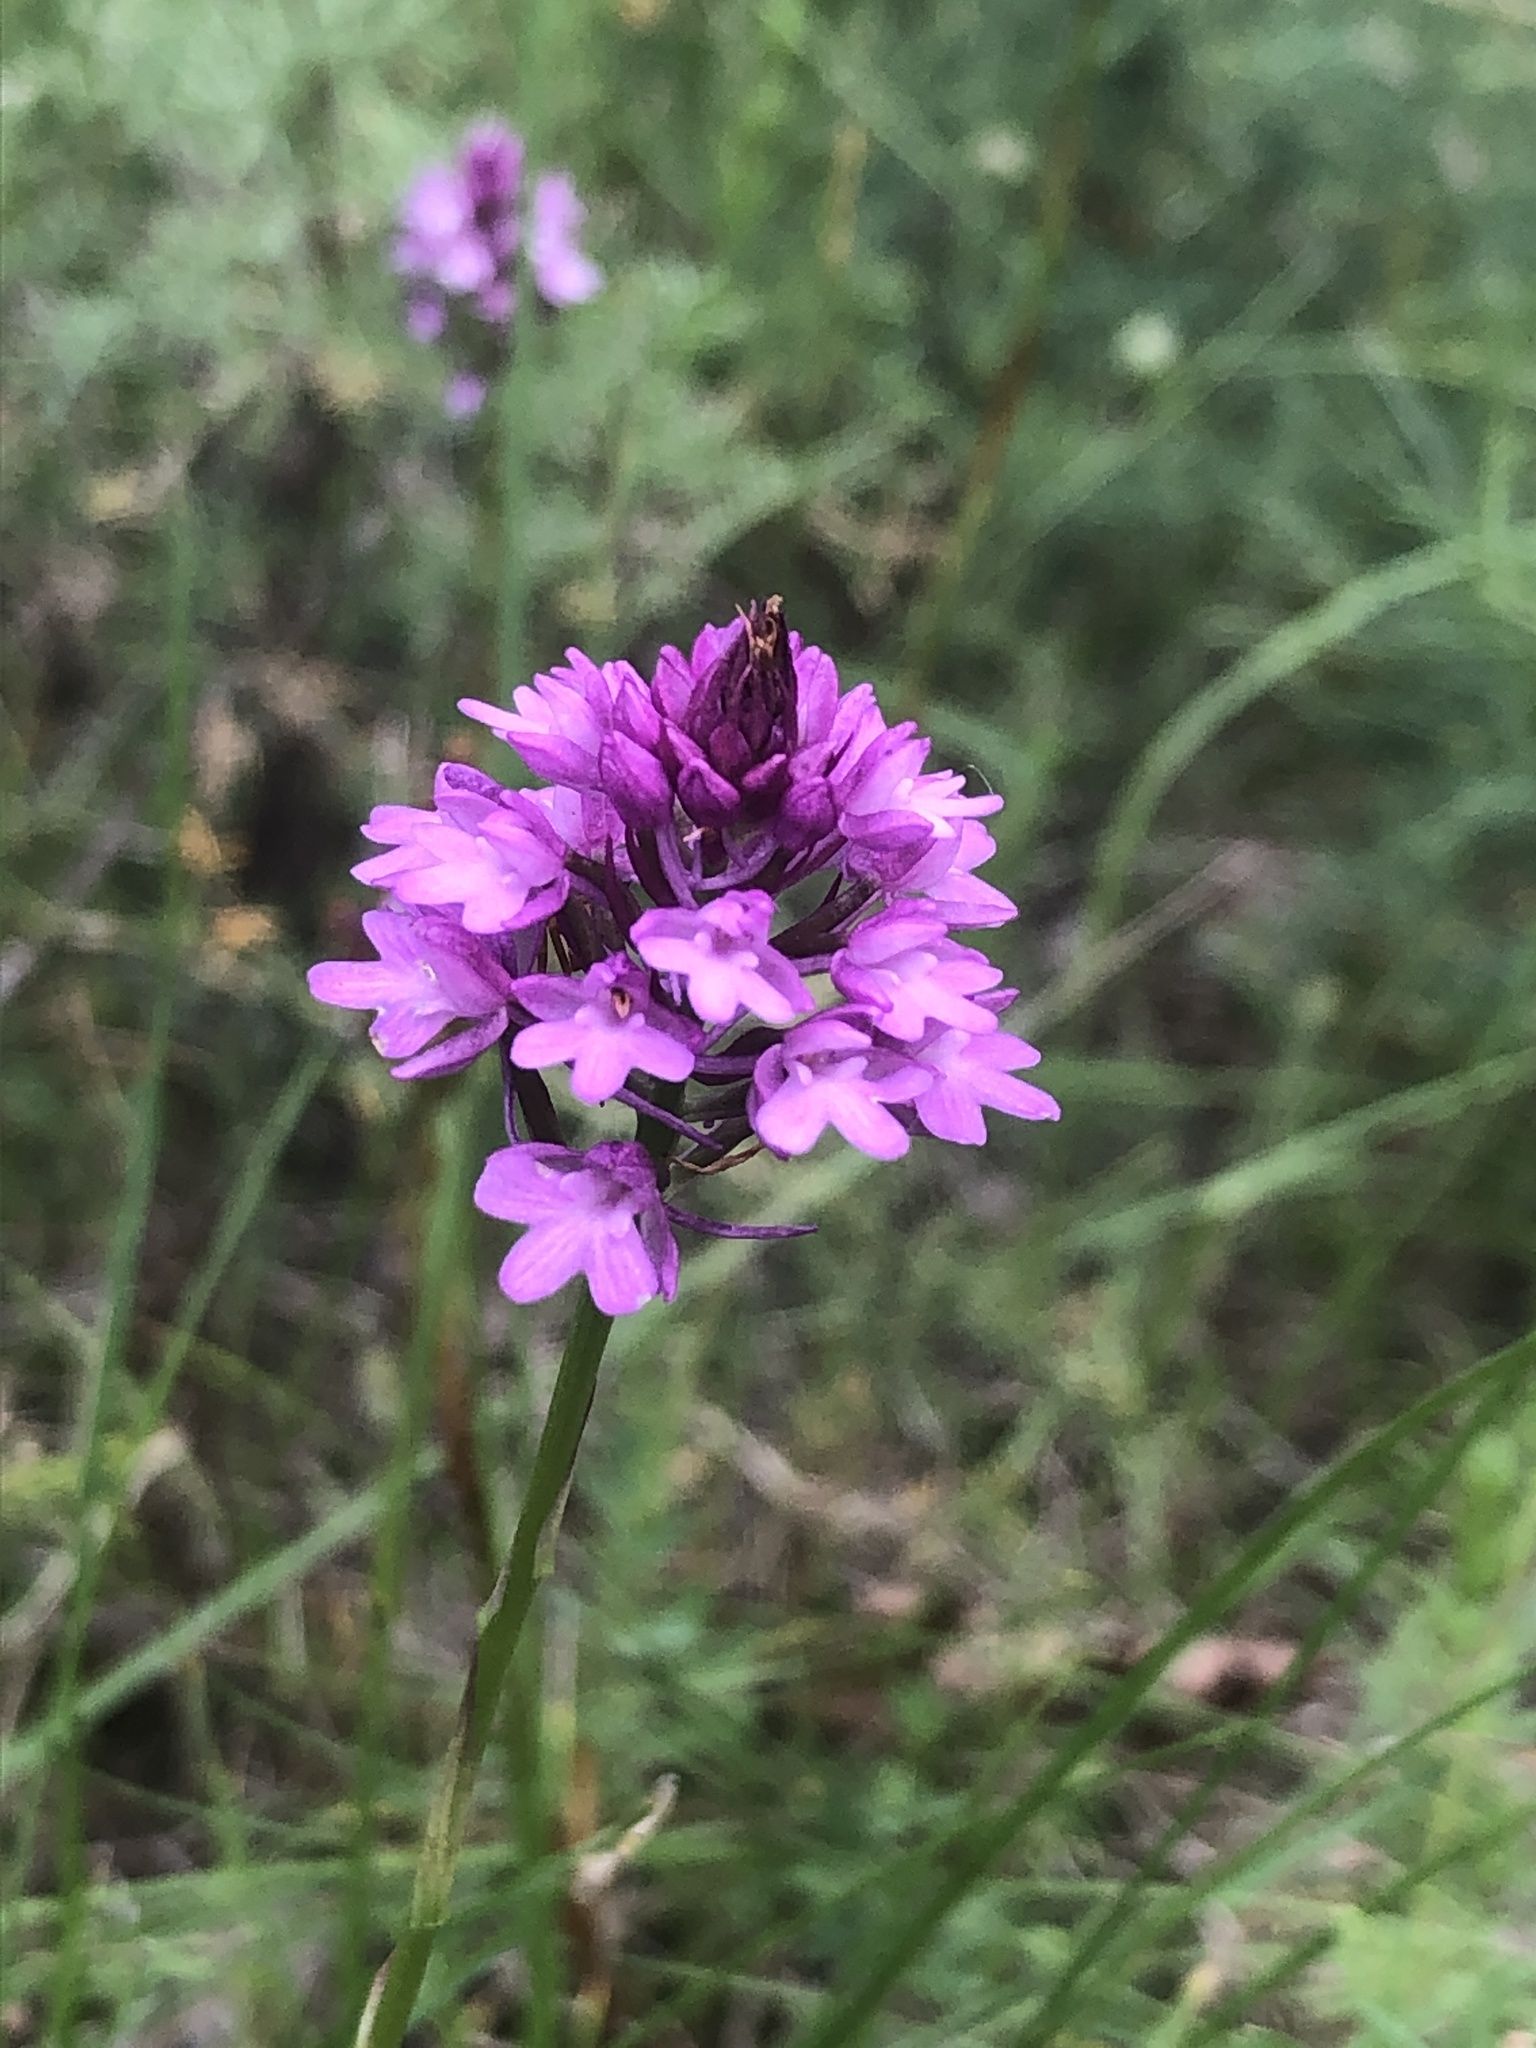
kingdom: Plantae
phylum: Tracheophyta
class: Liliopsida
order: Asparagales
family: Orchidaceae
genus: Anacamptis
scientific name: Anacamptis pyramidalis
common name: Pyramidal orchid
